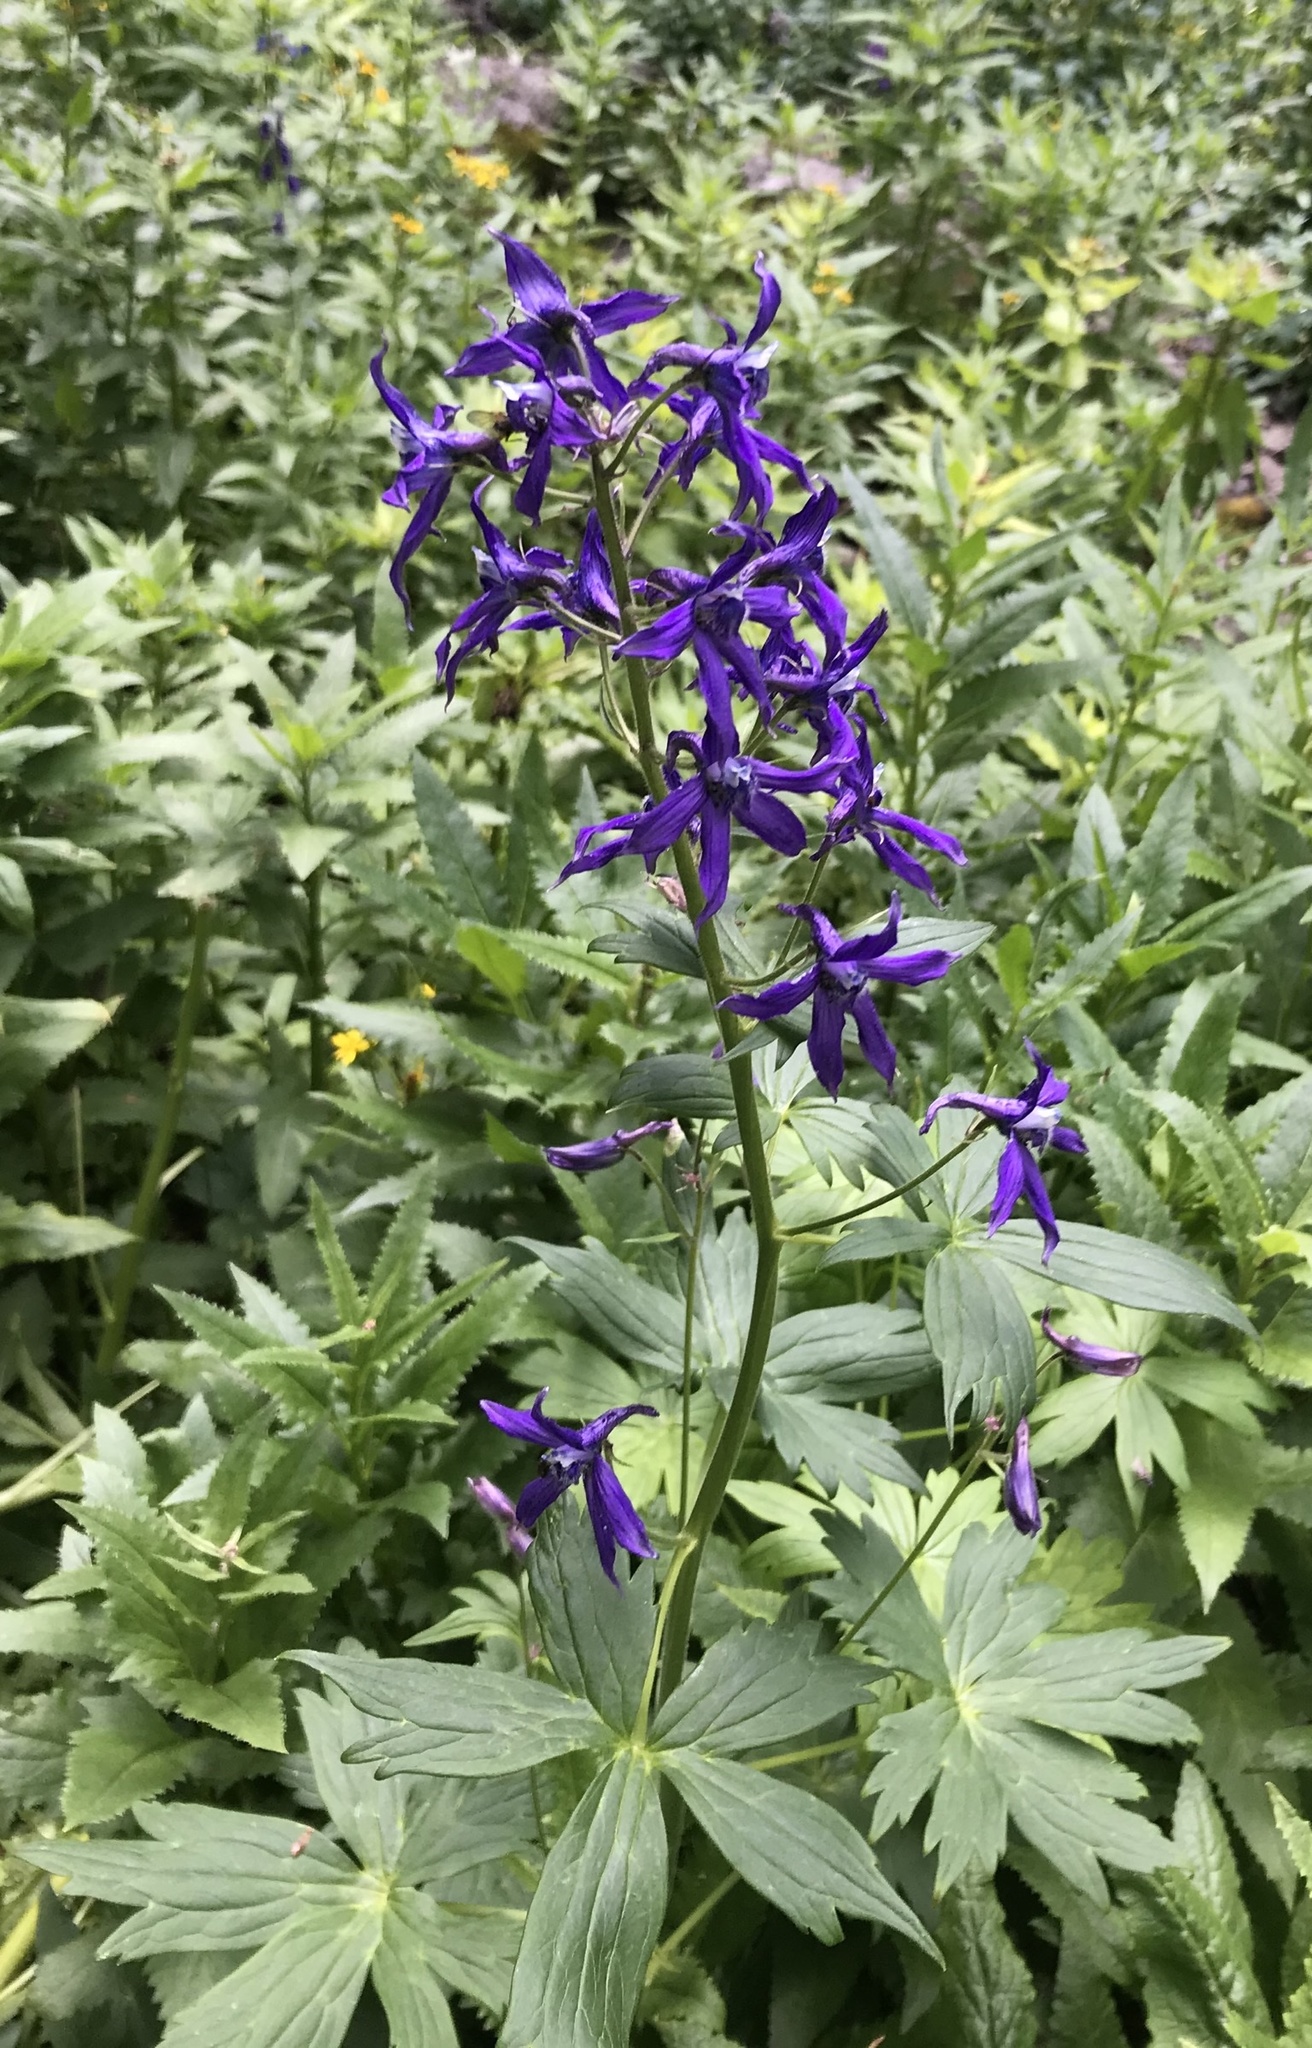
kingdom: Plantae
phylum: Tracheophyta
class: Magnoliopsida
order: Ranunculales
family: Ranunculaceae
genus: Delphinium
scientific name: Delphinium barbeyi
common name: Subalpine larkspur
